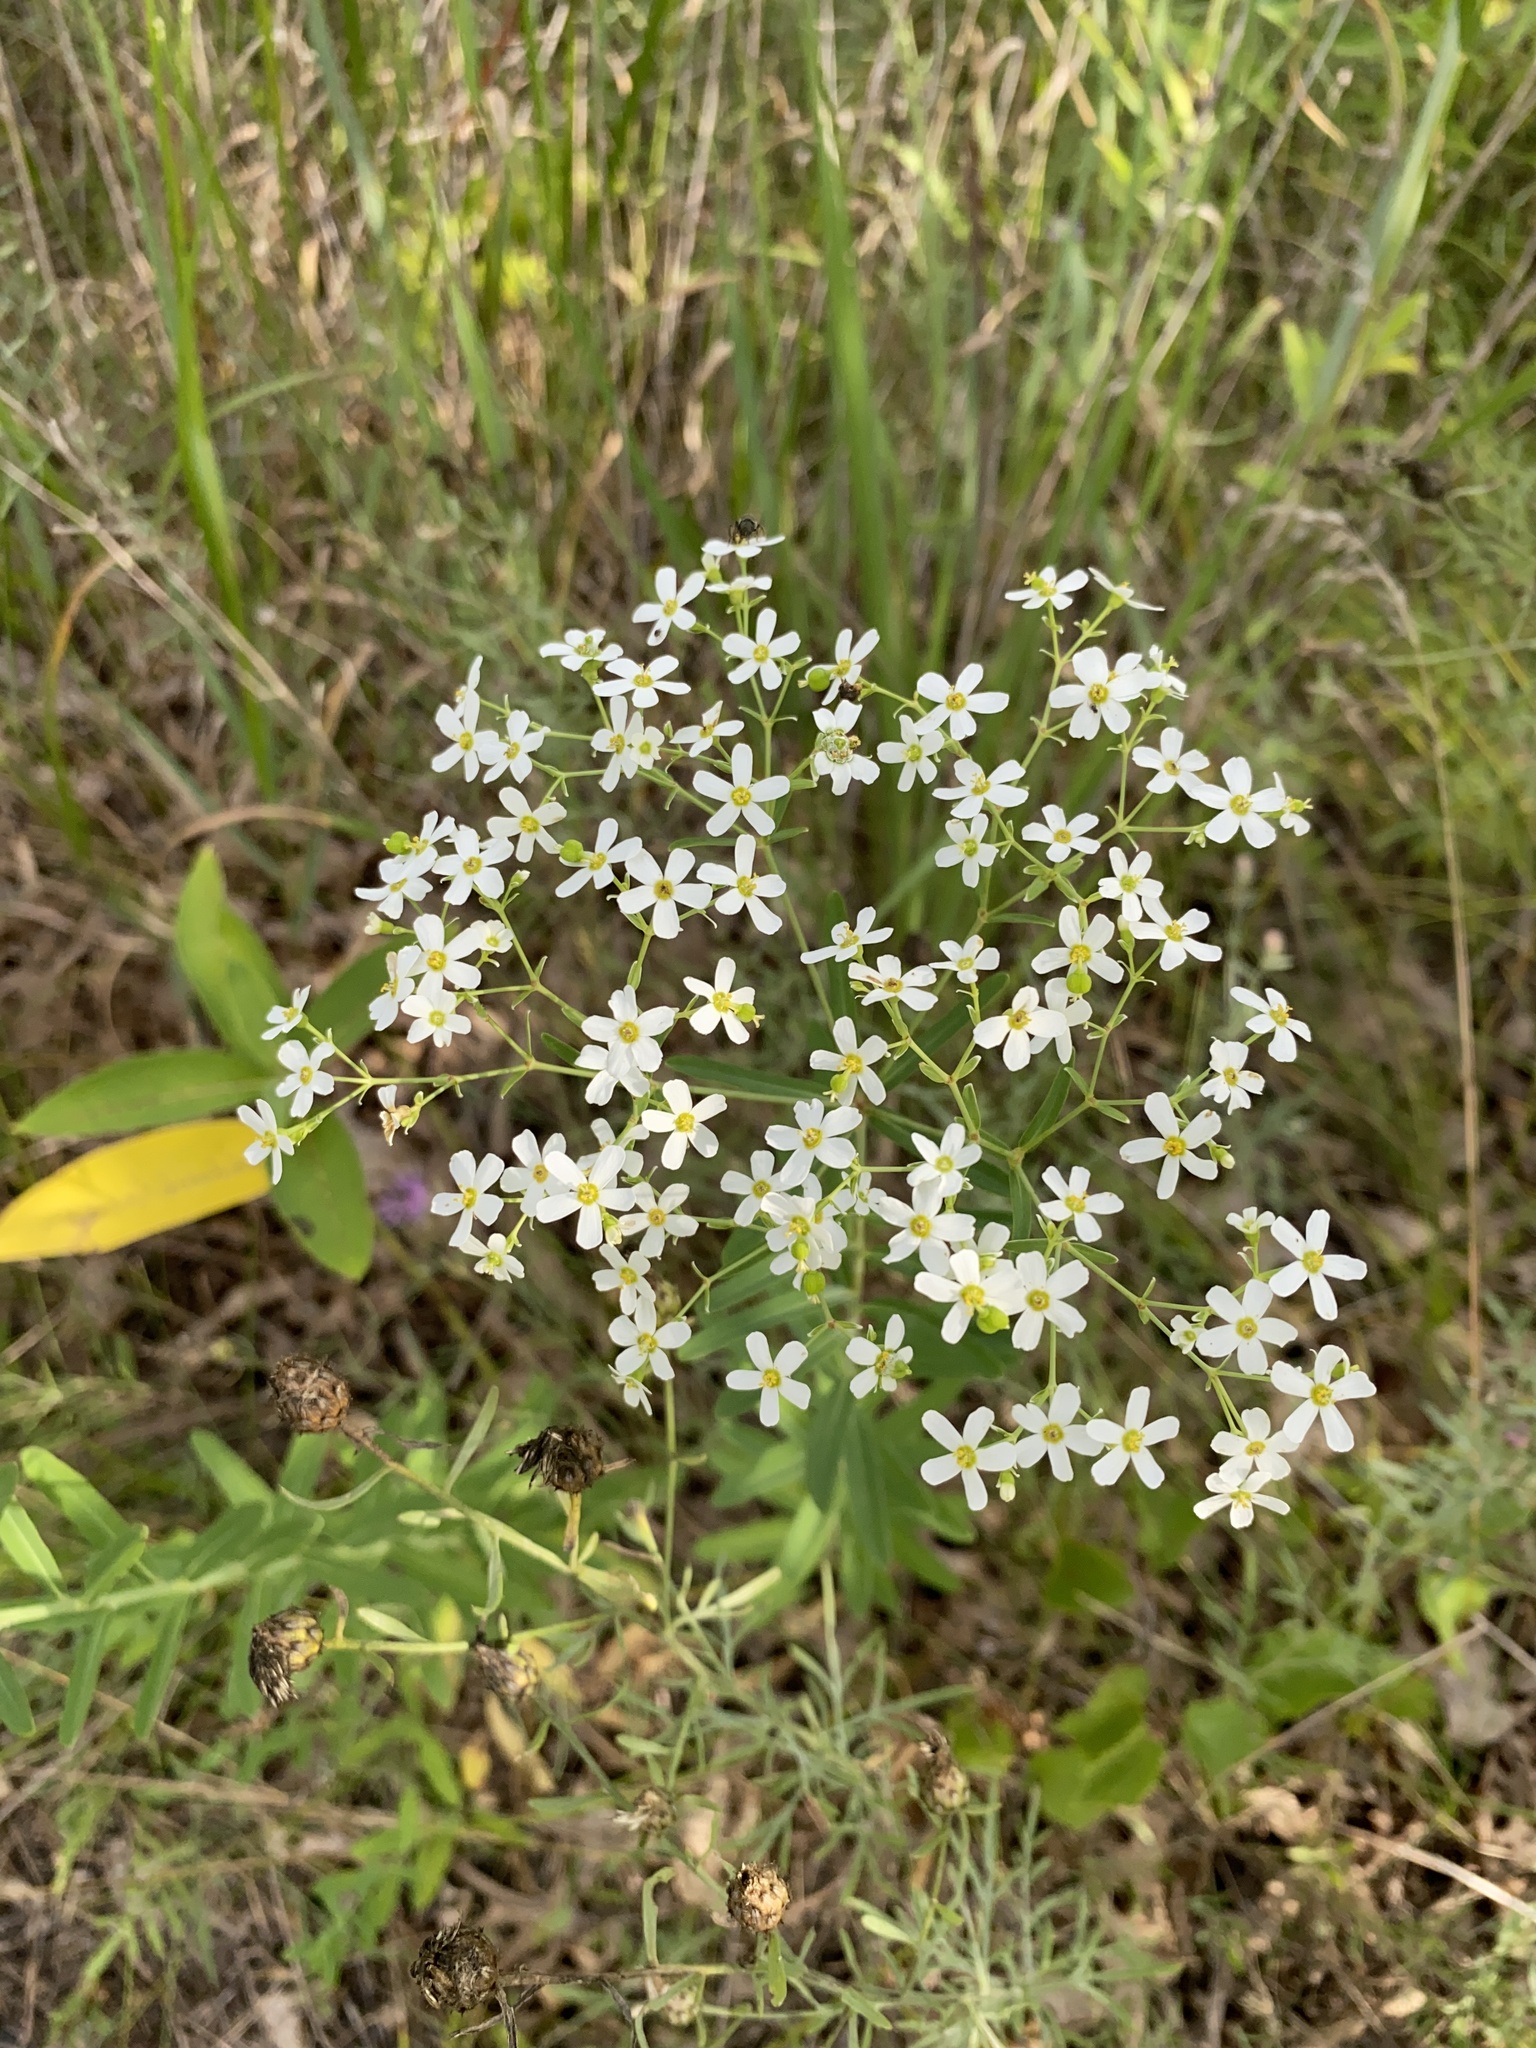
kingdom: Plantae
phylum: Tracheophyta
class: Magnoliopsida
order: Malpighiales
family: Euphorbiaceae
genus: Euphorbia
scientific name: Euphorbia corollata
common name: Flowering spurge
